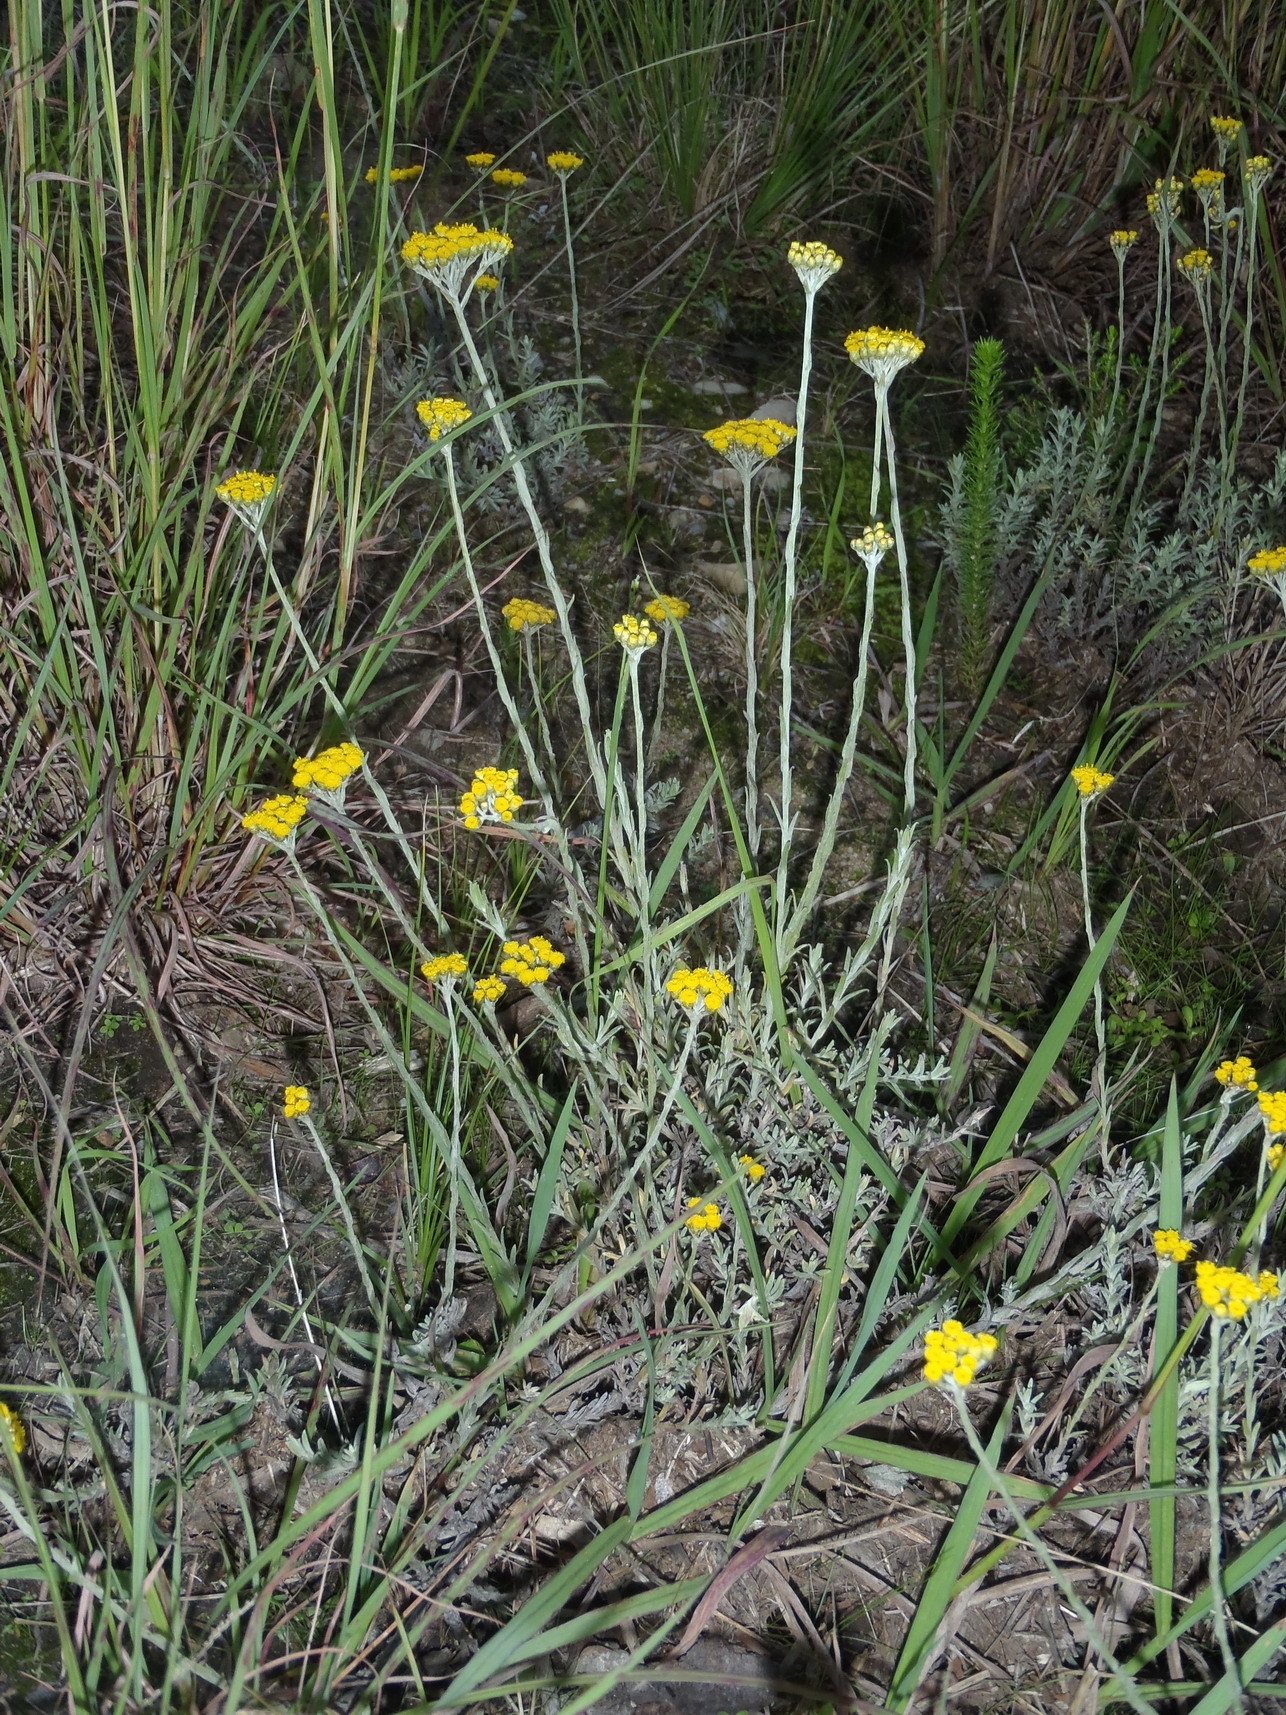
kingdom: Plantae
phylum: Tracheophyta
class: Magnoliopsida
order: Asterales
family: Asteraceae
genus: Helichrysum
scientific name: Helichrysum anomalum
